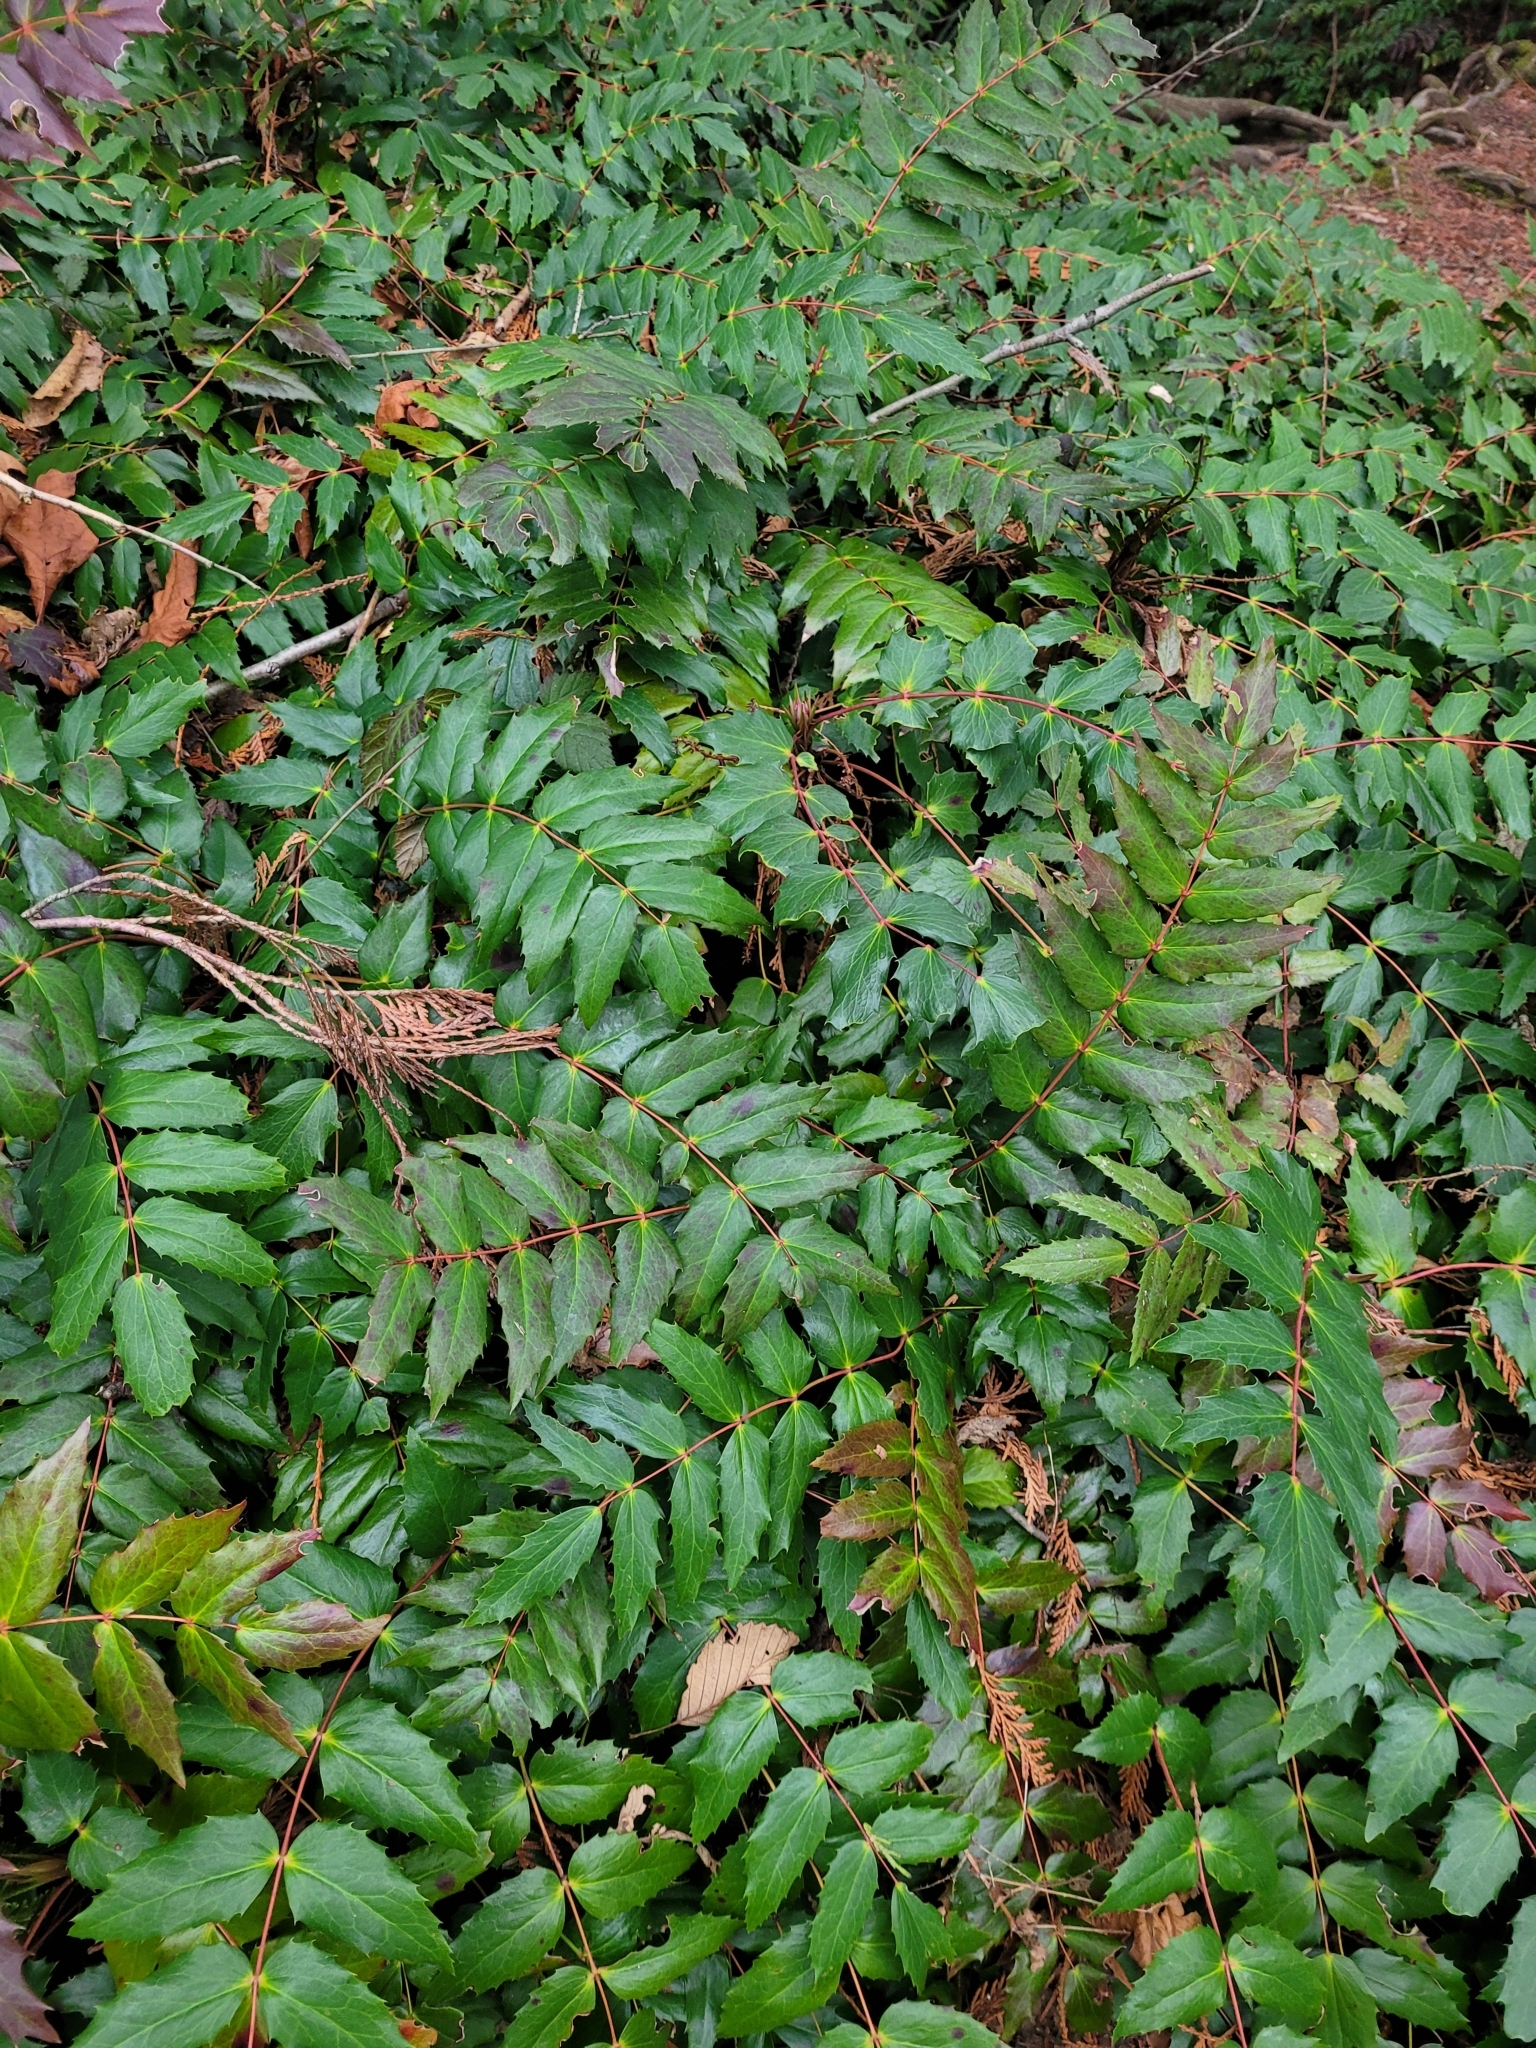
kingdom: Plantae
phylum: Tracheophyta
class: Magnoliopsida
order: Ranunculales
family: Berberidaceae
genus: Mahonia
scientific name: Mahonia nervosa
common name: Cascade oregon-grape
